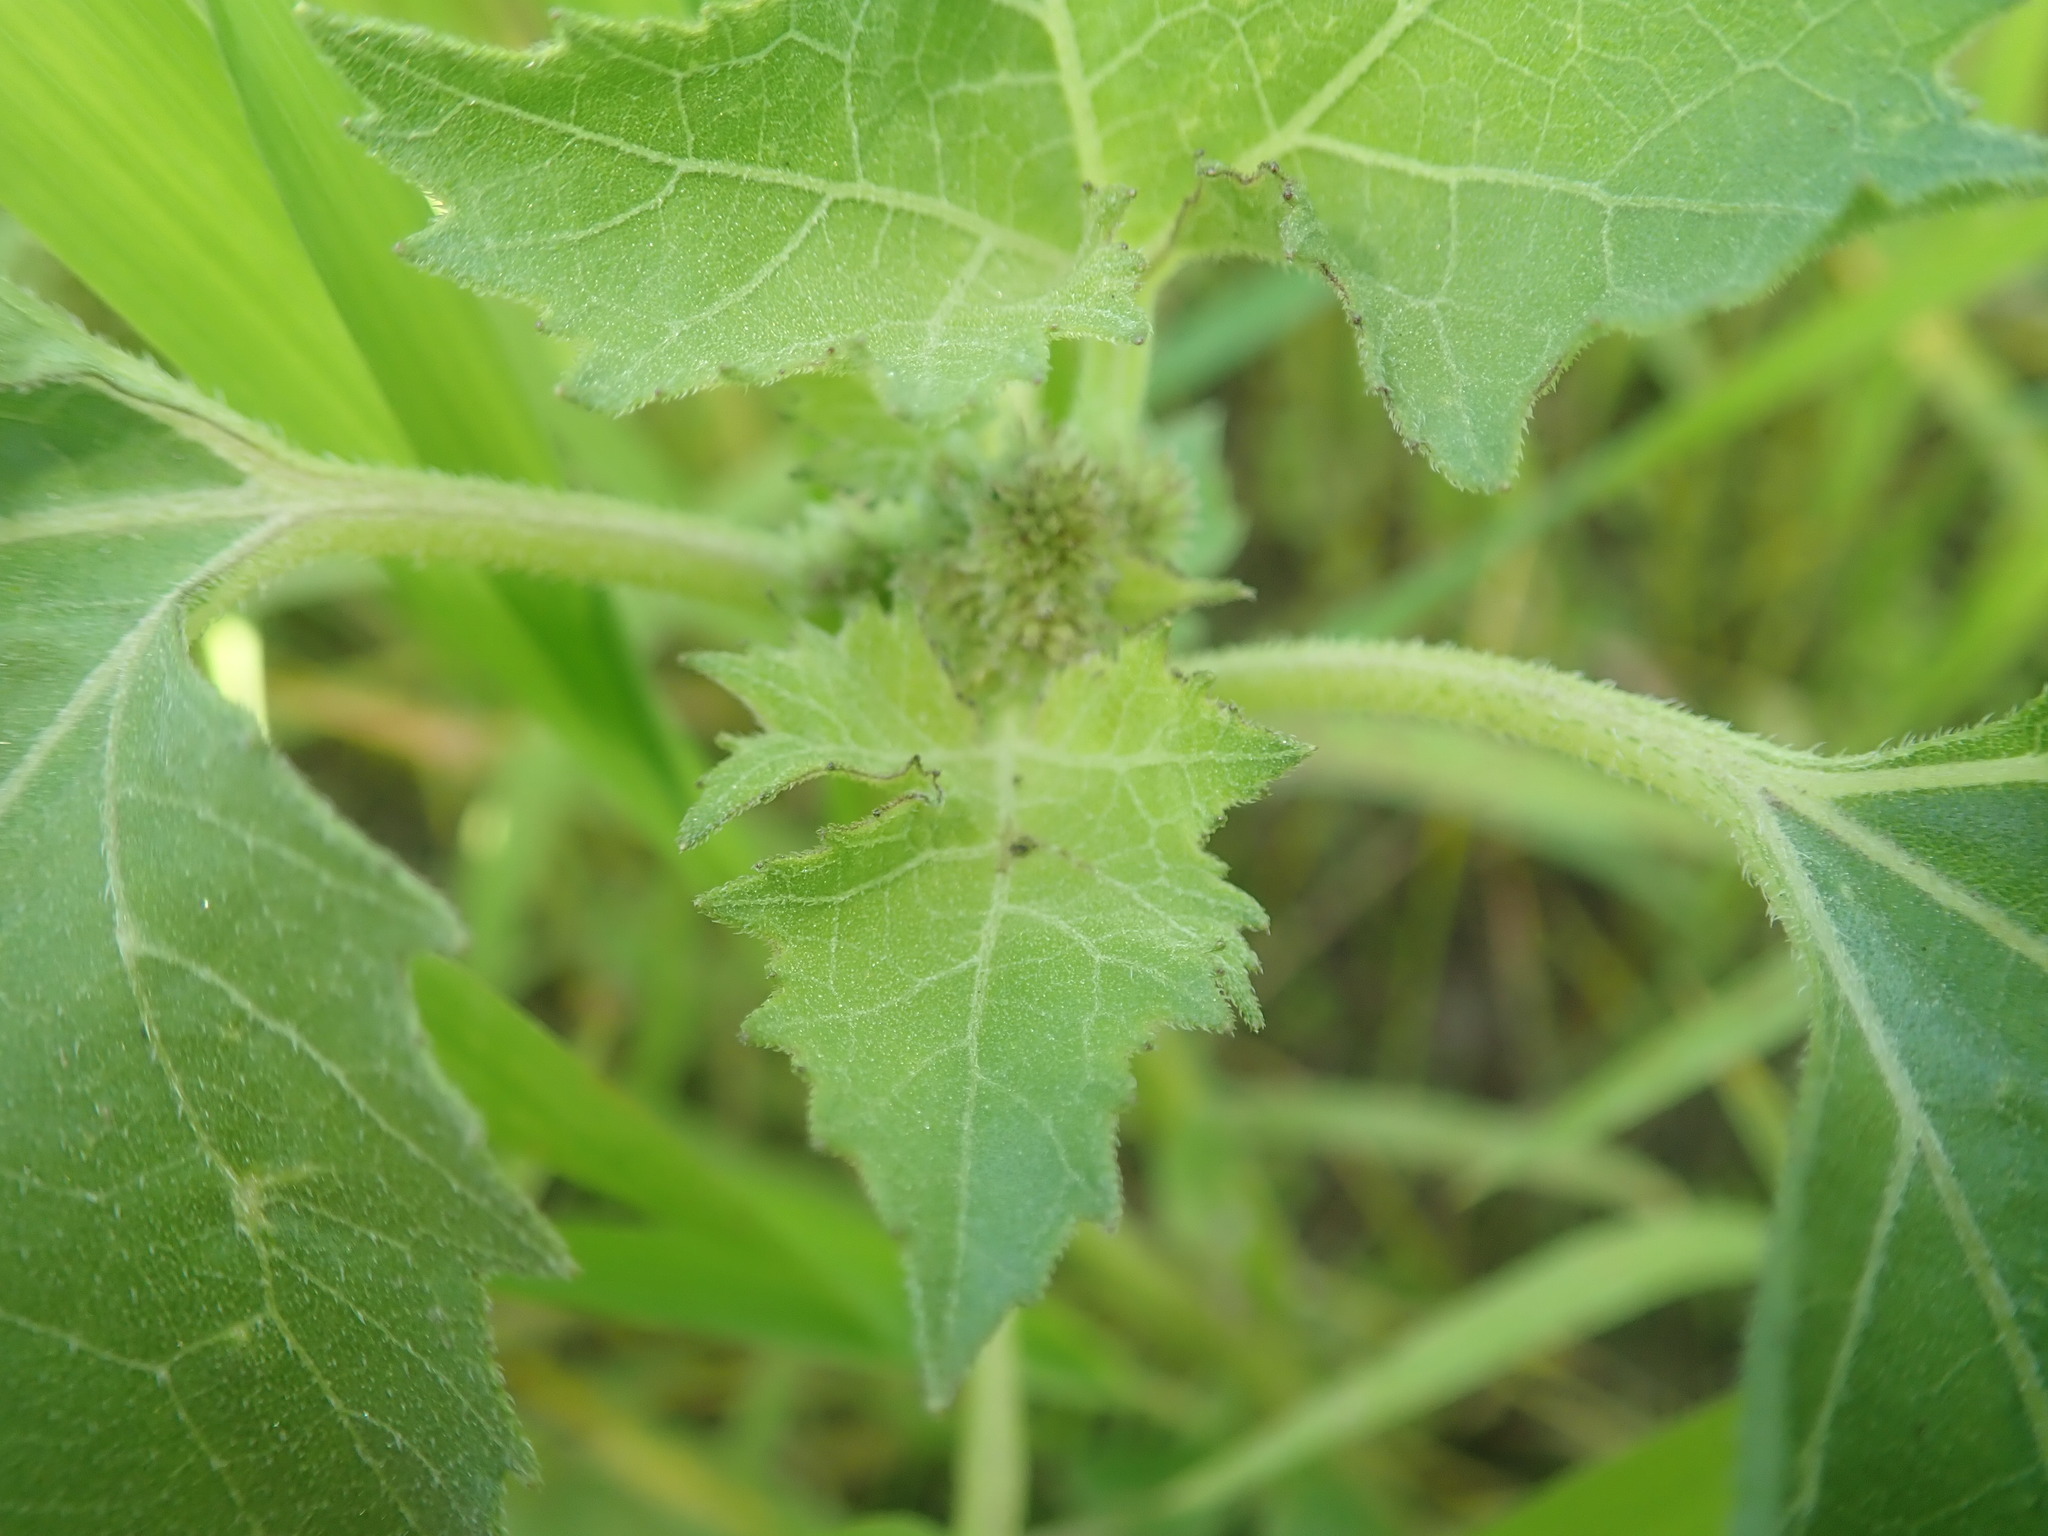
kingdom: Plantae
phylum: Tracheophyta
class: Magnoliopsida
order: Asterales
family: Asteraceae
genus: Xanthium
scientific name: Xanthium strumarium
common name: Rough cocklebur
